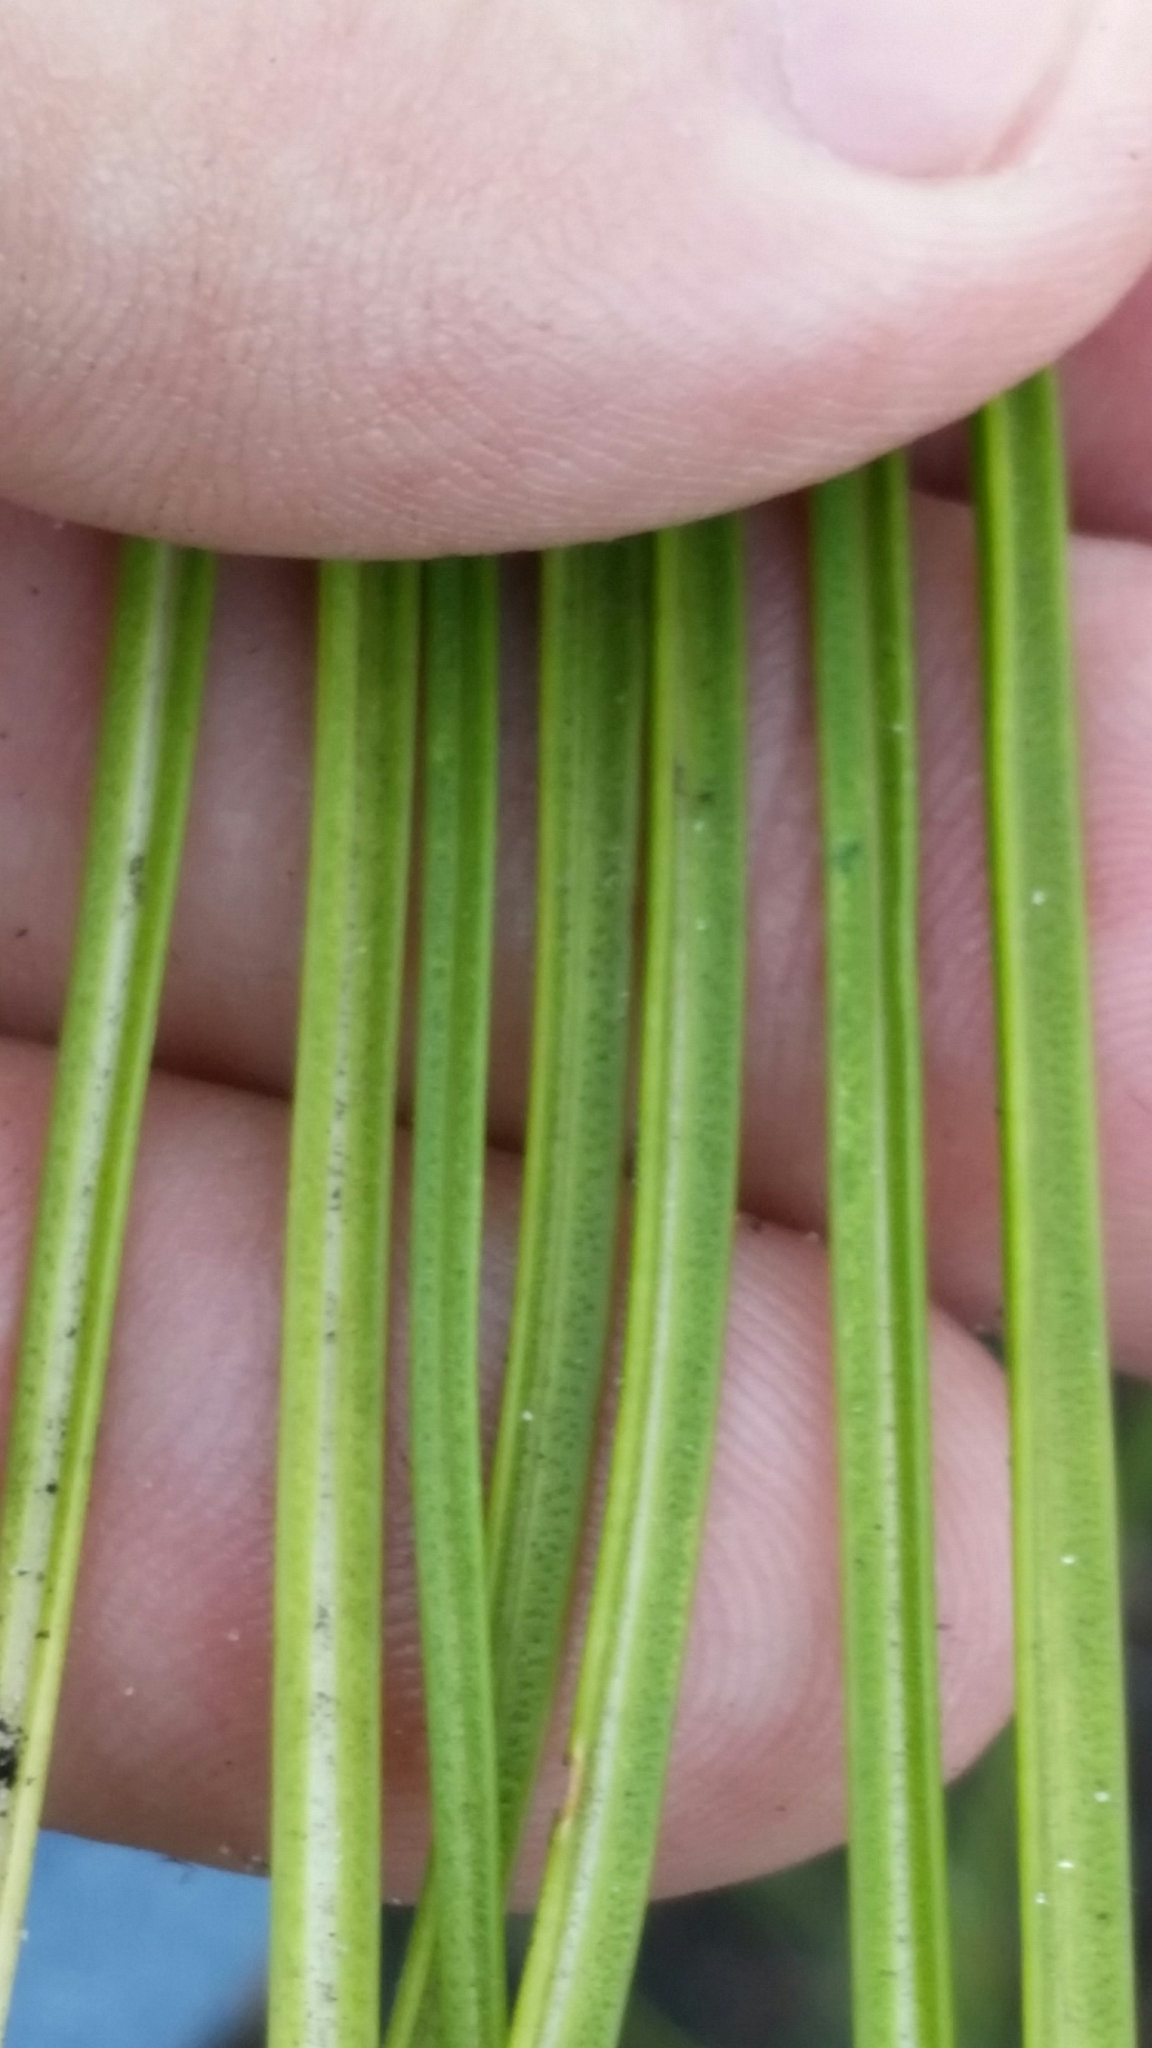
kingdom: Plantae
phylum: Tracheophyta
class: Magnoliopsida
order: Asterales
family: Asteraceae
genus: Liatris
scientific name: Liatris laevigata
